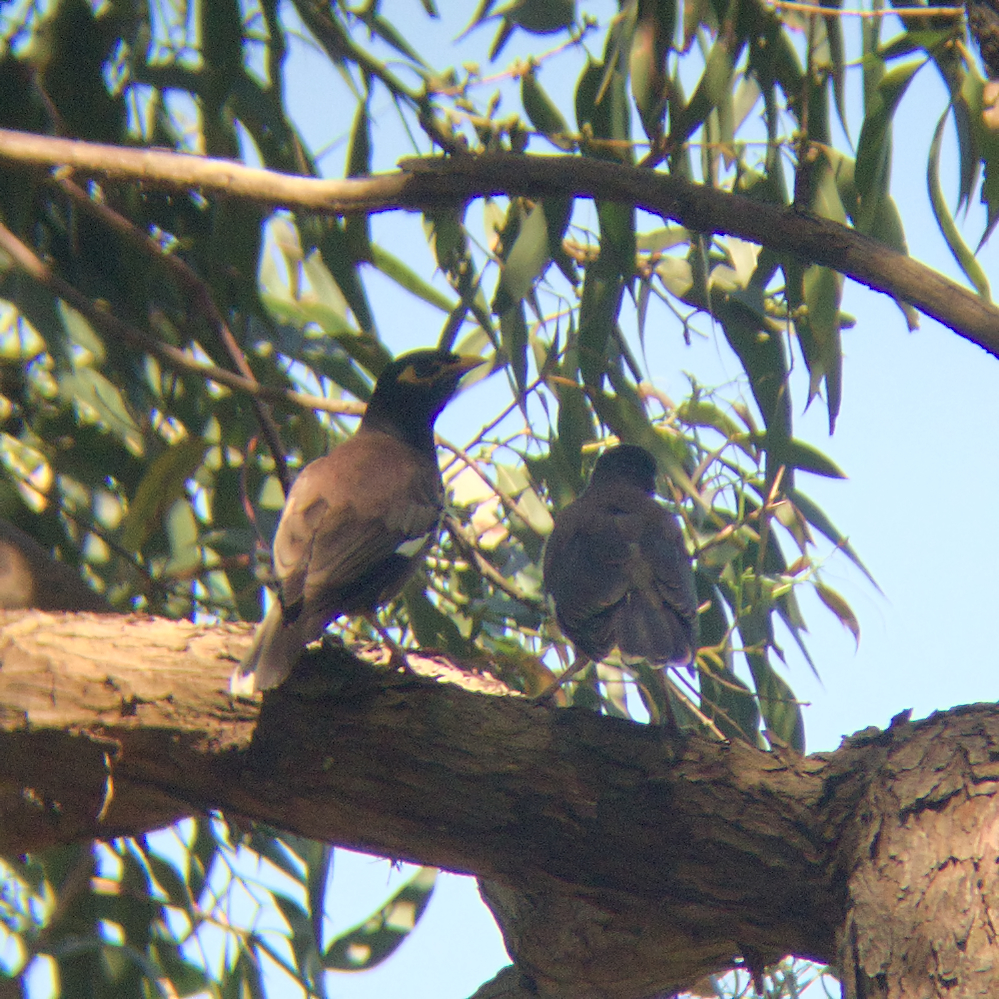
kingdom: Animalia
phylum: Chordata
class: Aves
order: Passeriformes
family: Sturnidae
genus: Acridotheres
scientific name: Acridotheres tristis
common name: Common myna
